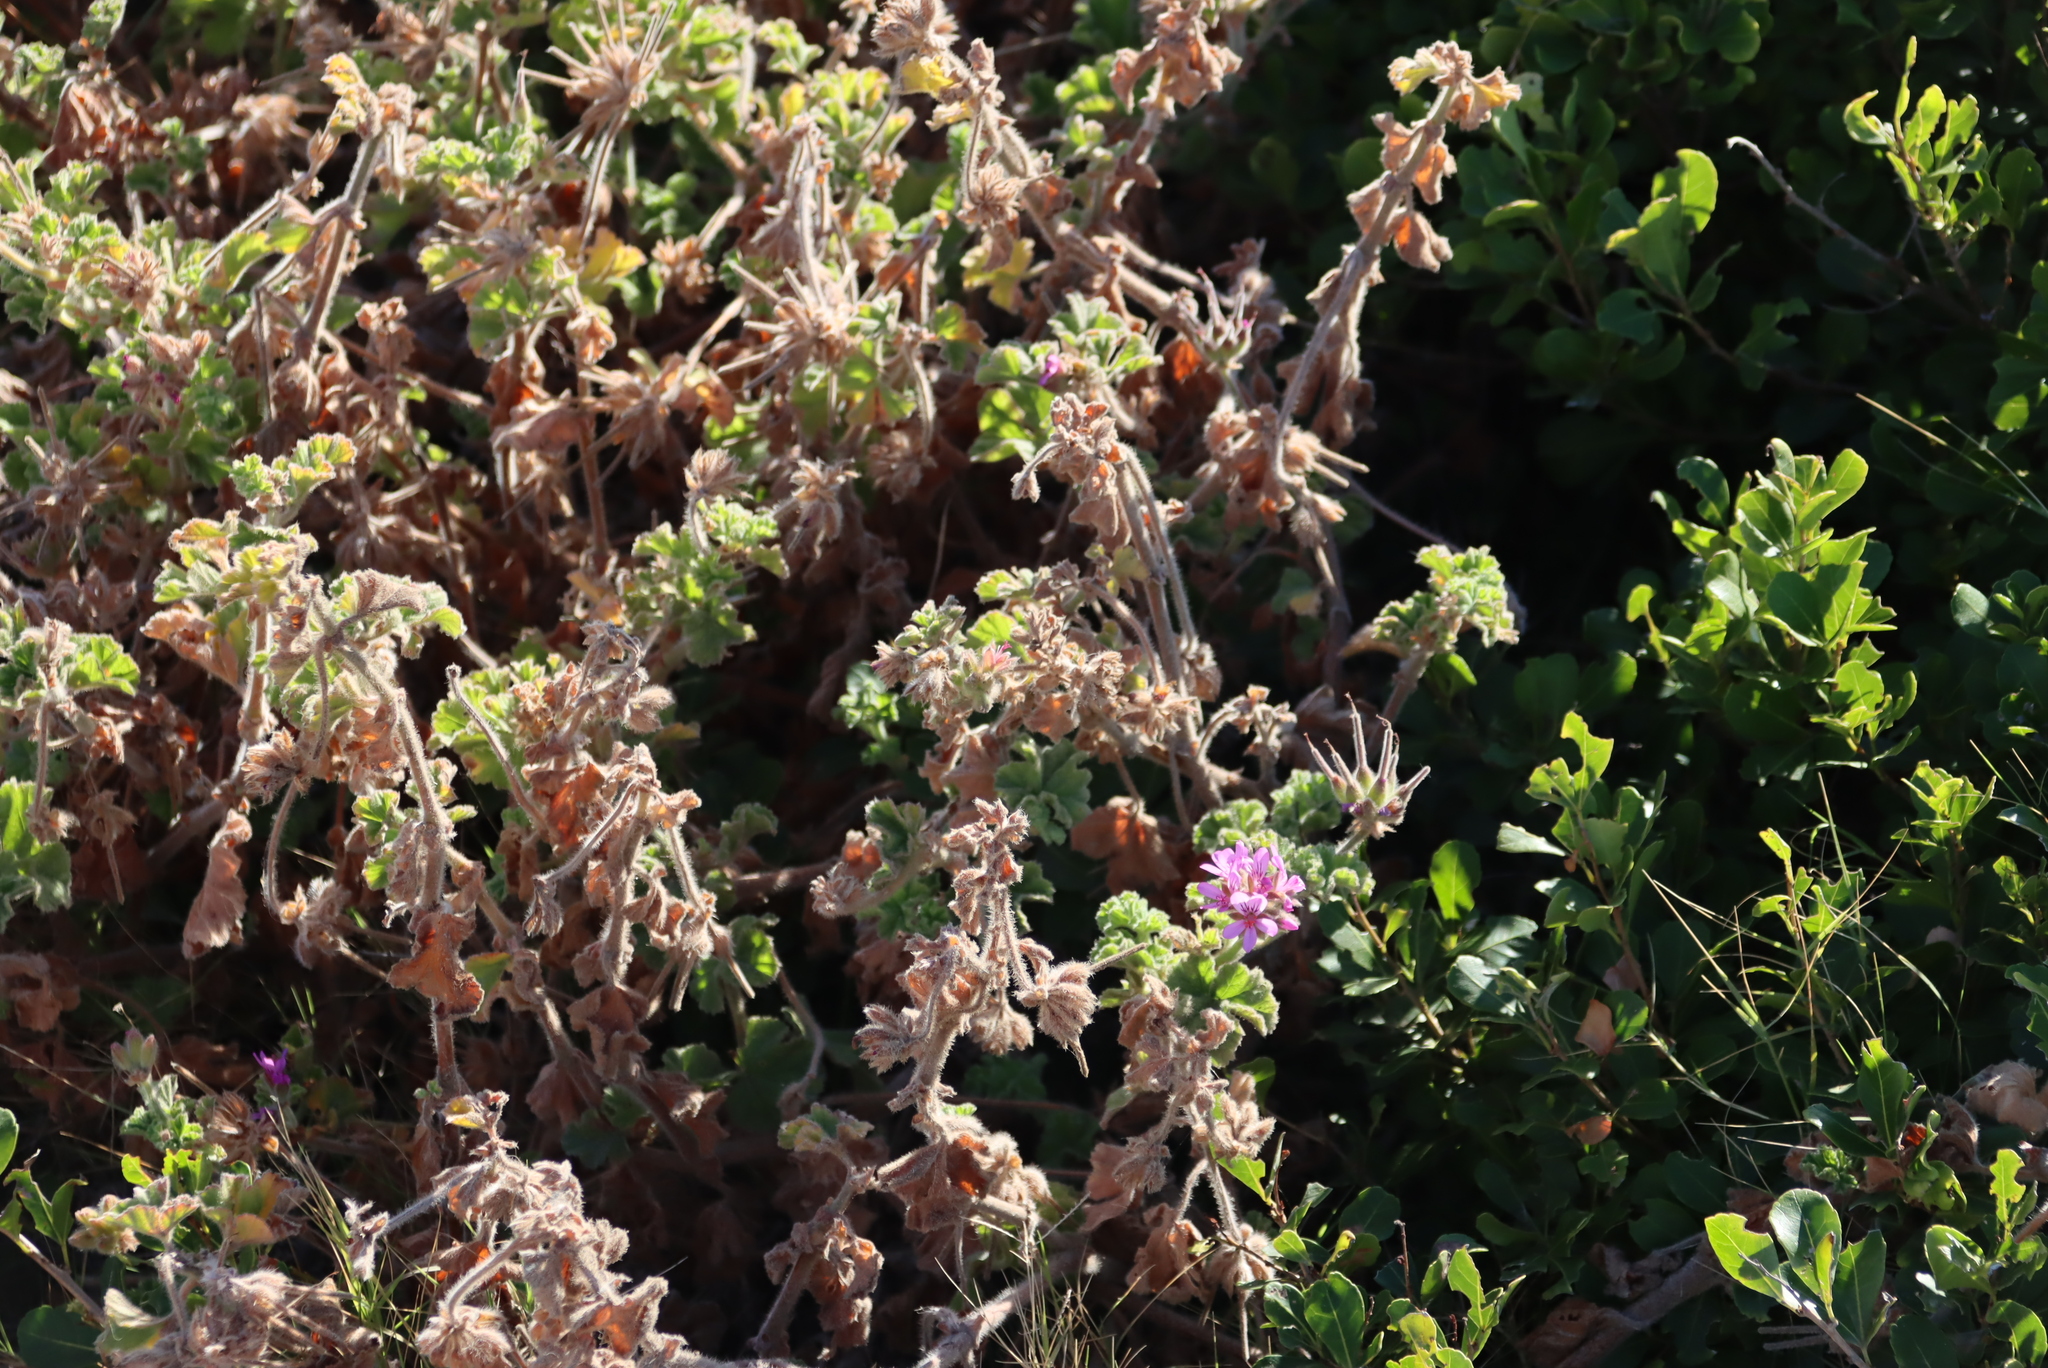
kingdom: Plantae
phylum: Tracheophyta
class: Magnoliopsida
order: Geraniales
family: Geraniaceae
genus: Pelargonium
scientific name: Pelargonium capitatum
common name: Rose scented geranium
